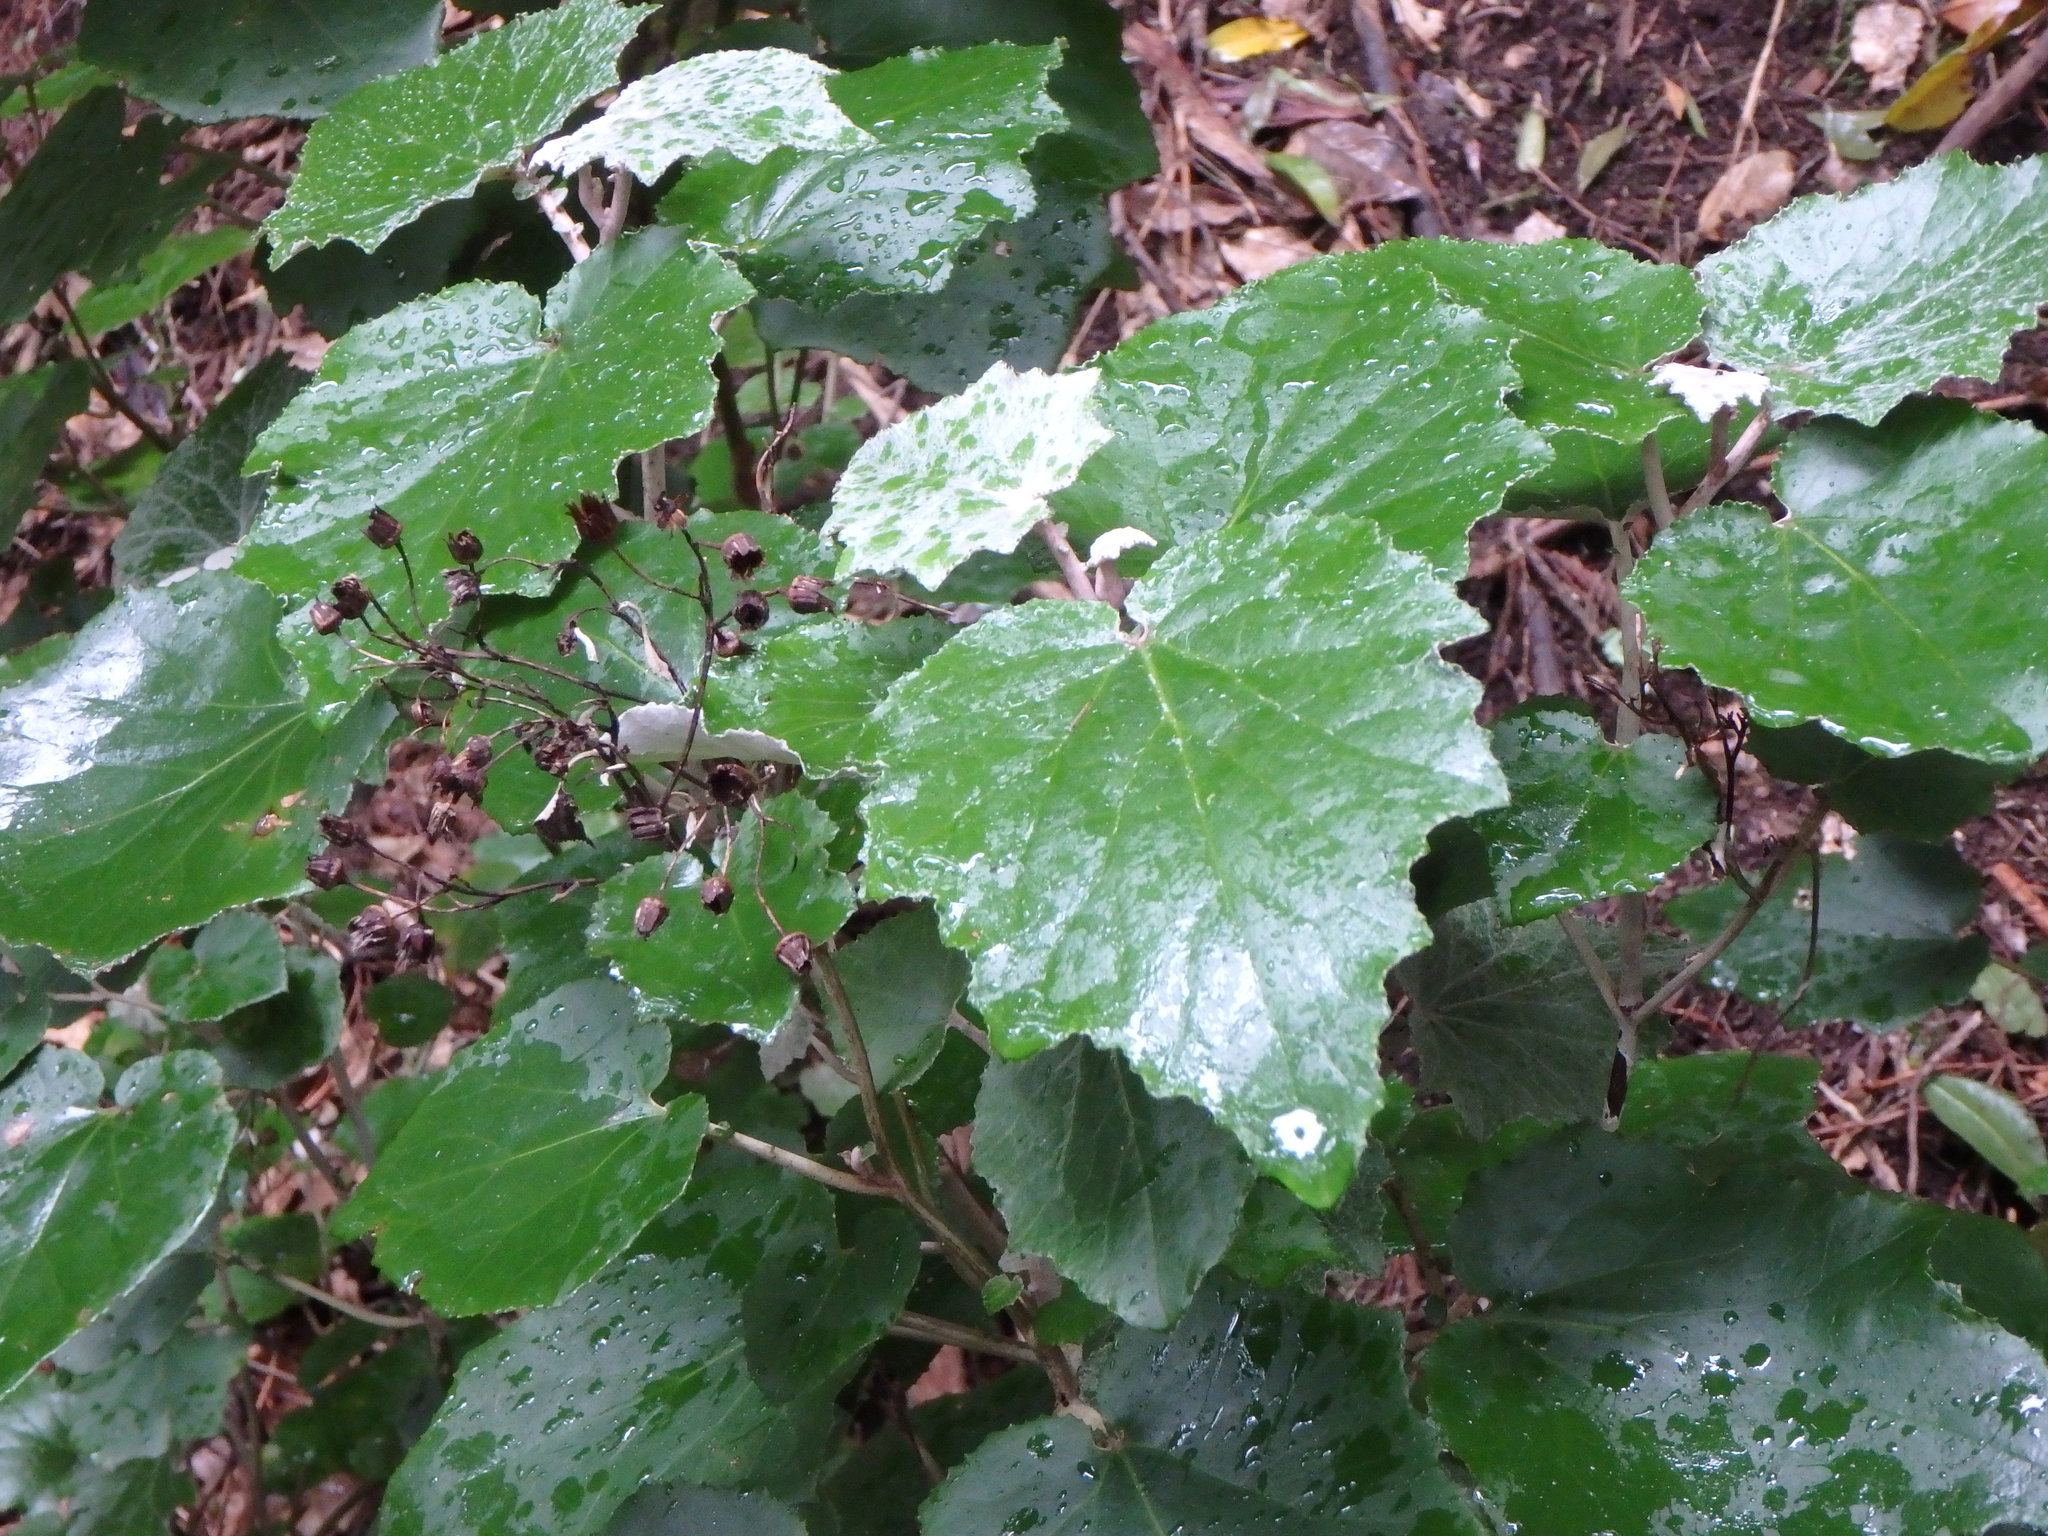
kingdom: Plantae
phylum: Tracheophyta
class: Magnoliopsida
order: Asterales
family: Asteraceae
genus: Pericallis
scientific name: Pericallis appendiculata
